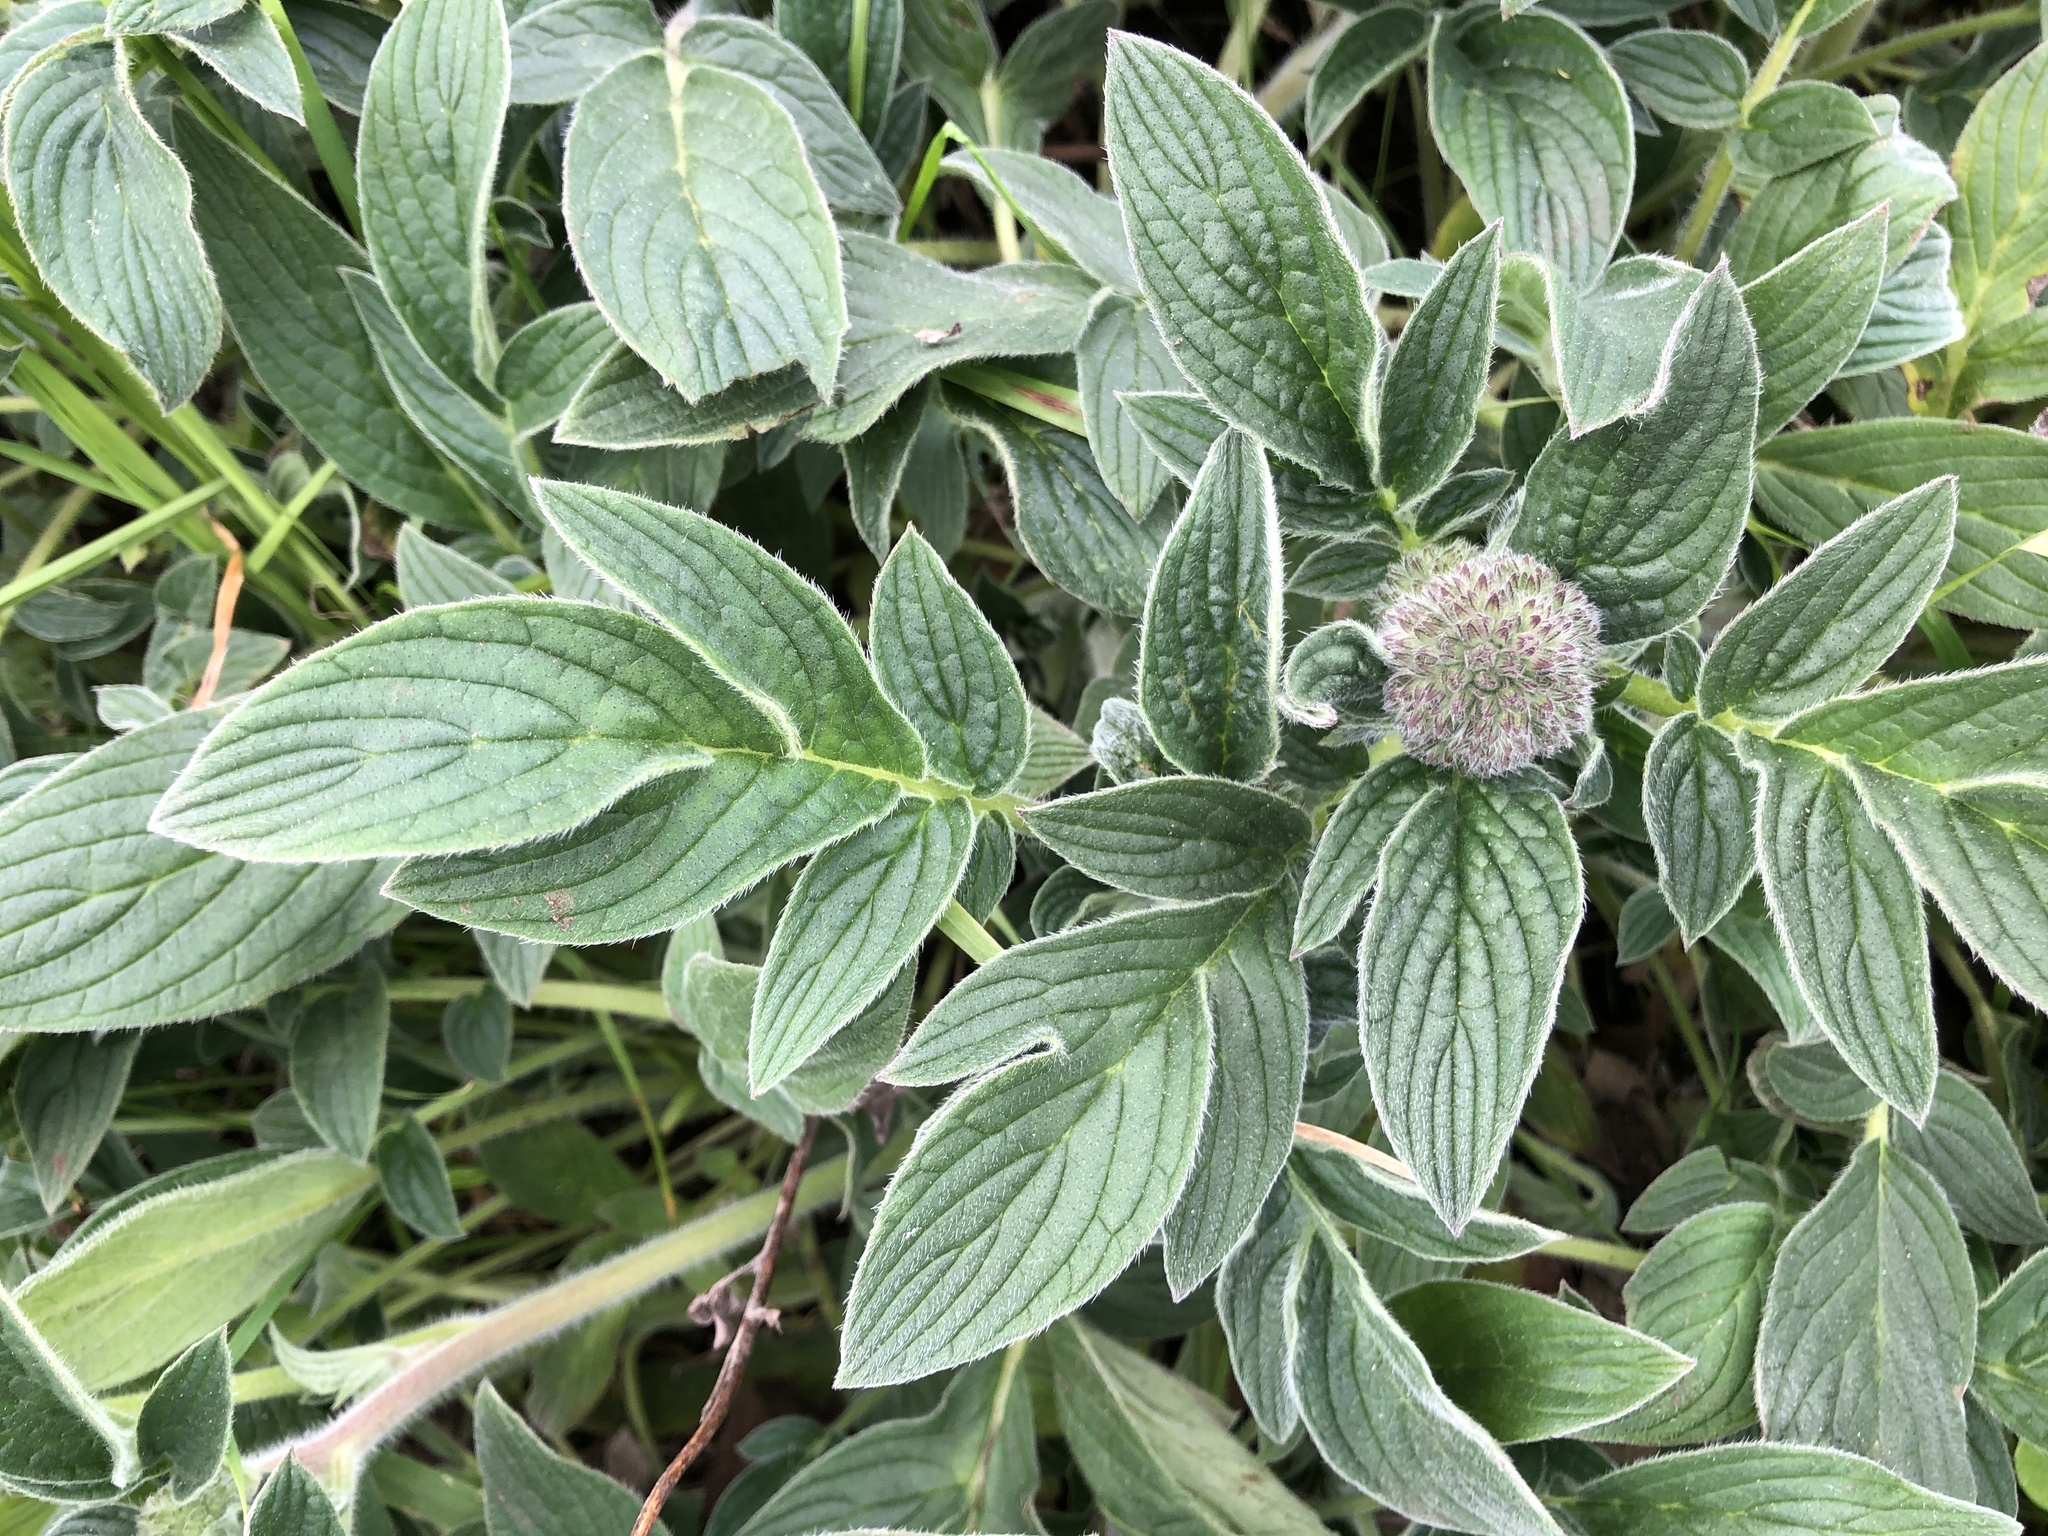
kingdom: Plantae
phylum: Tracheophyta
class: Magnoliopsida
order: Boraginales
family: Hydrophyllaceae
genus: Phacelia
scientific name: Phacelia californica
